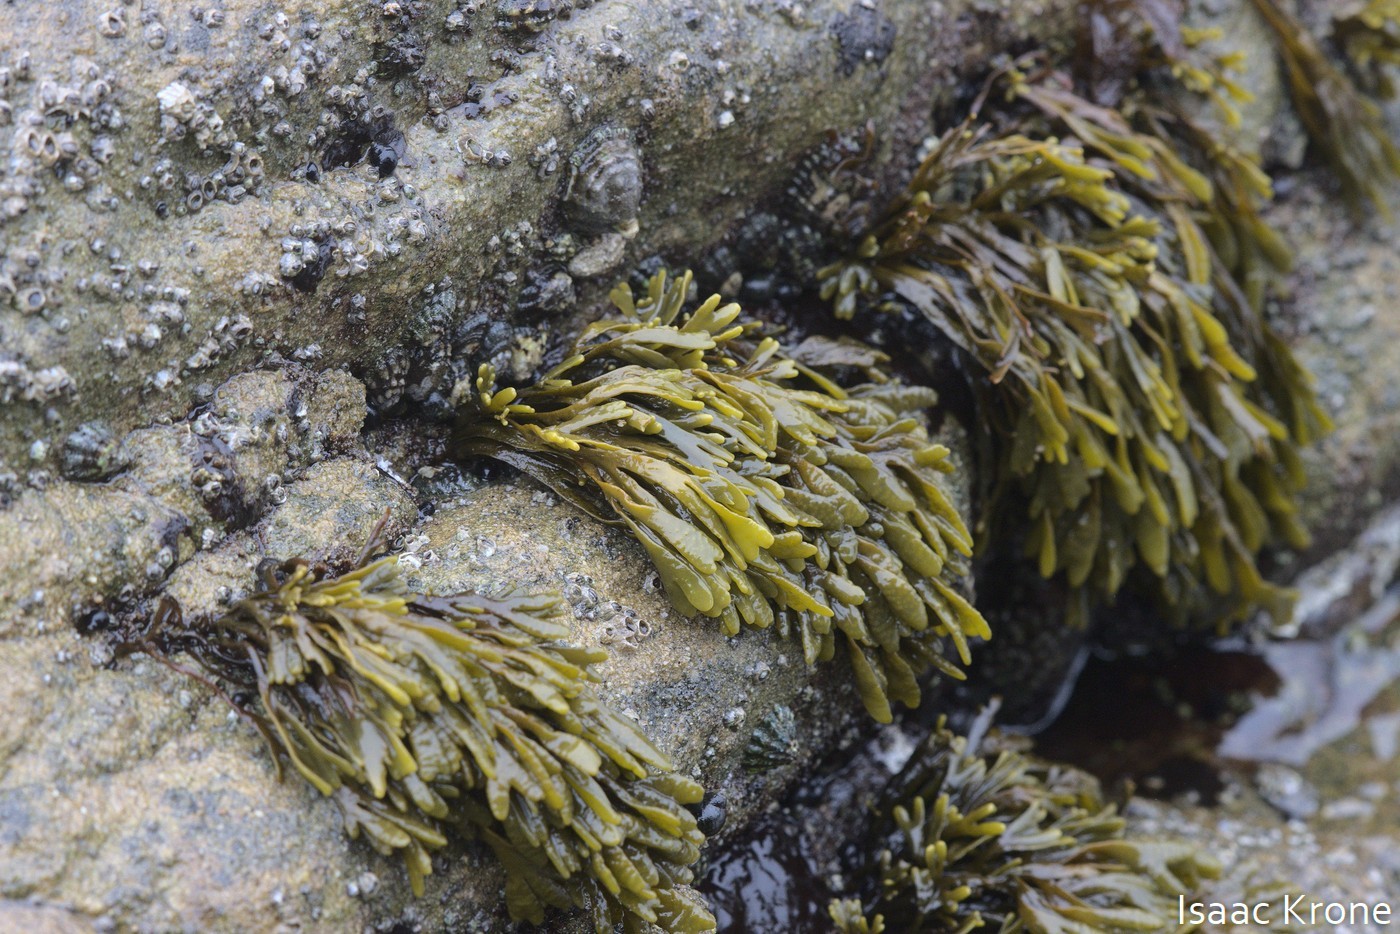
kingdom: Chromista
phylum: Ochrophyta
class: Phaeophyceae
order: Fucales
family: Fucaceae
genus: Pelvetiopsis
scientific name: Pelvetiopsis limitata
